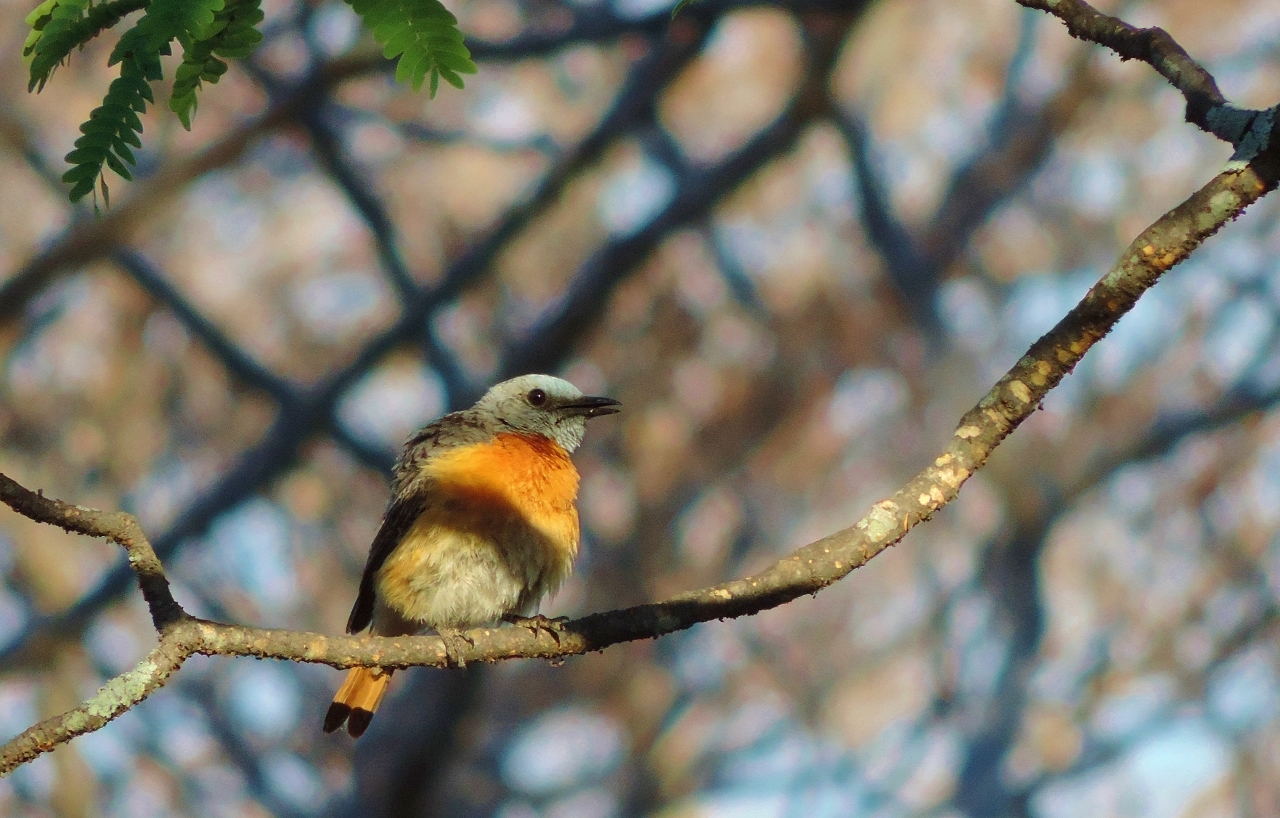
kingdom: Animalia
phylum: Chordata
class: Aves
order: Passeriformes
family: Muscicapidae
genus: Monticola
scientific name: Monticola angolensis
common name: Miombo rock thrush
